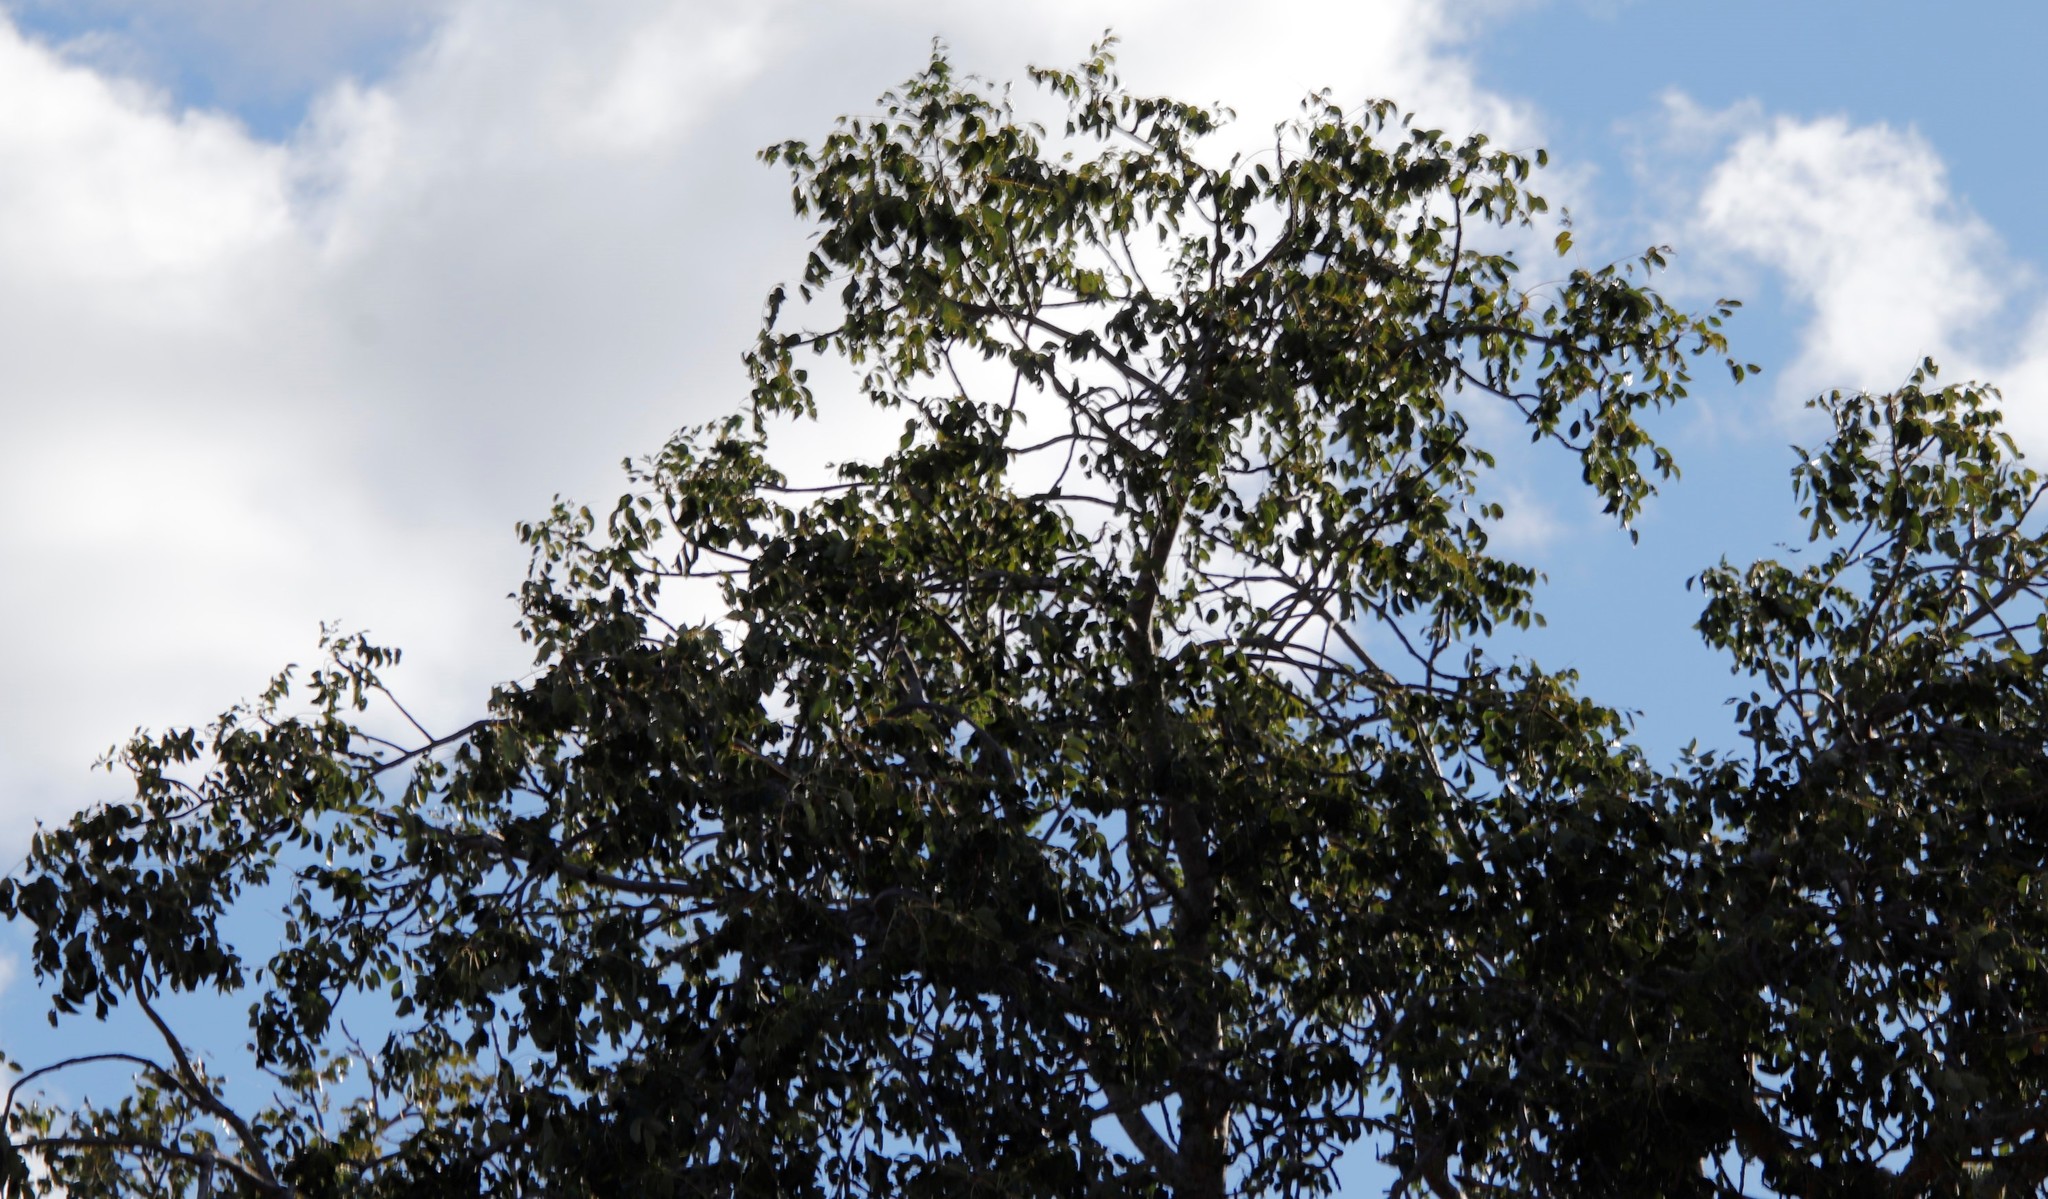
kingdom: Plantae
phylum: Tracheophyta
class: Magnoliopsida
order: Sapindales
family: Anacardiaceae
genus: Sclerocarya
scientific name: Sclerocarya birrea
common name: Marula
